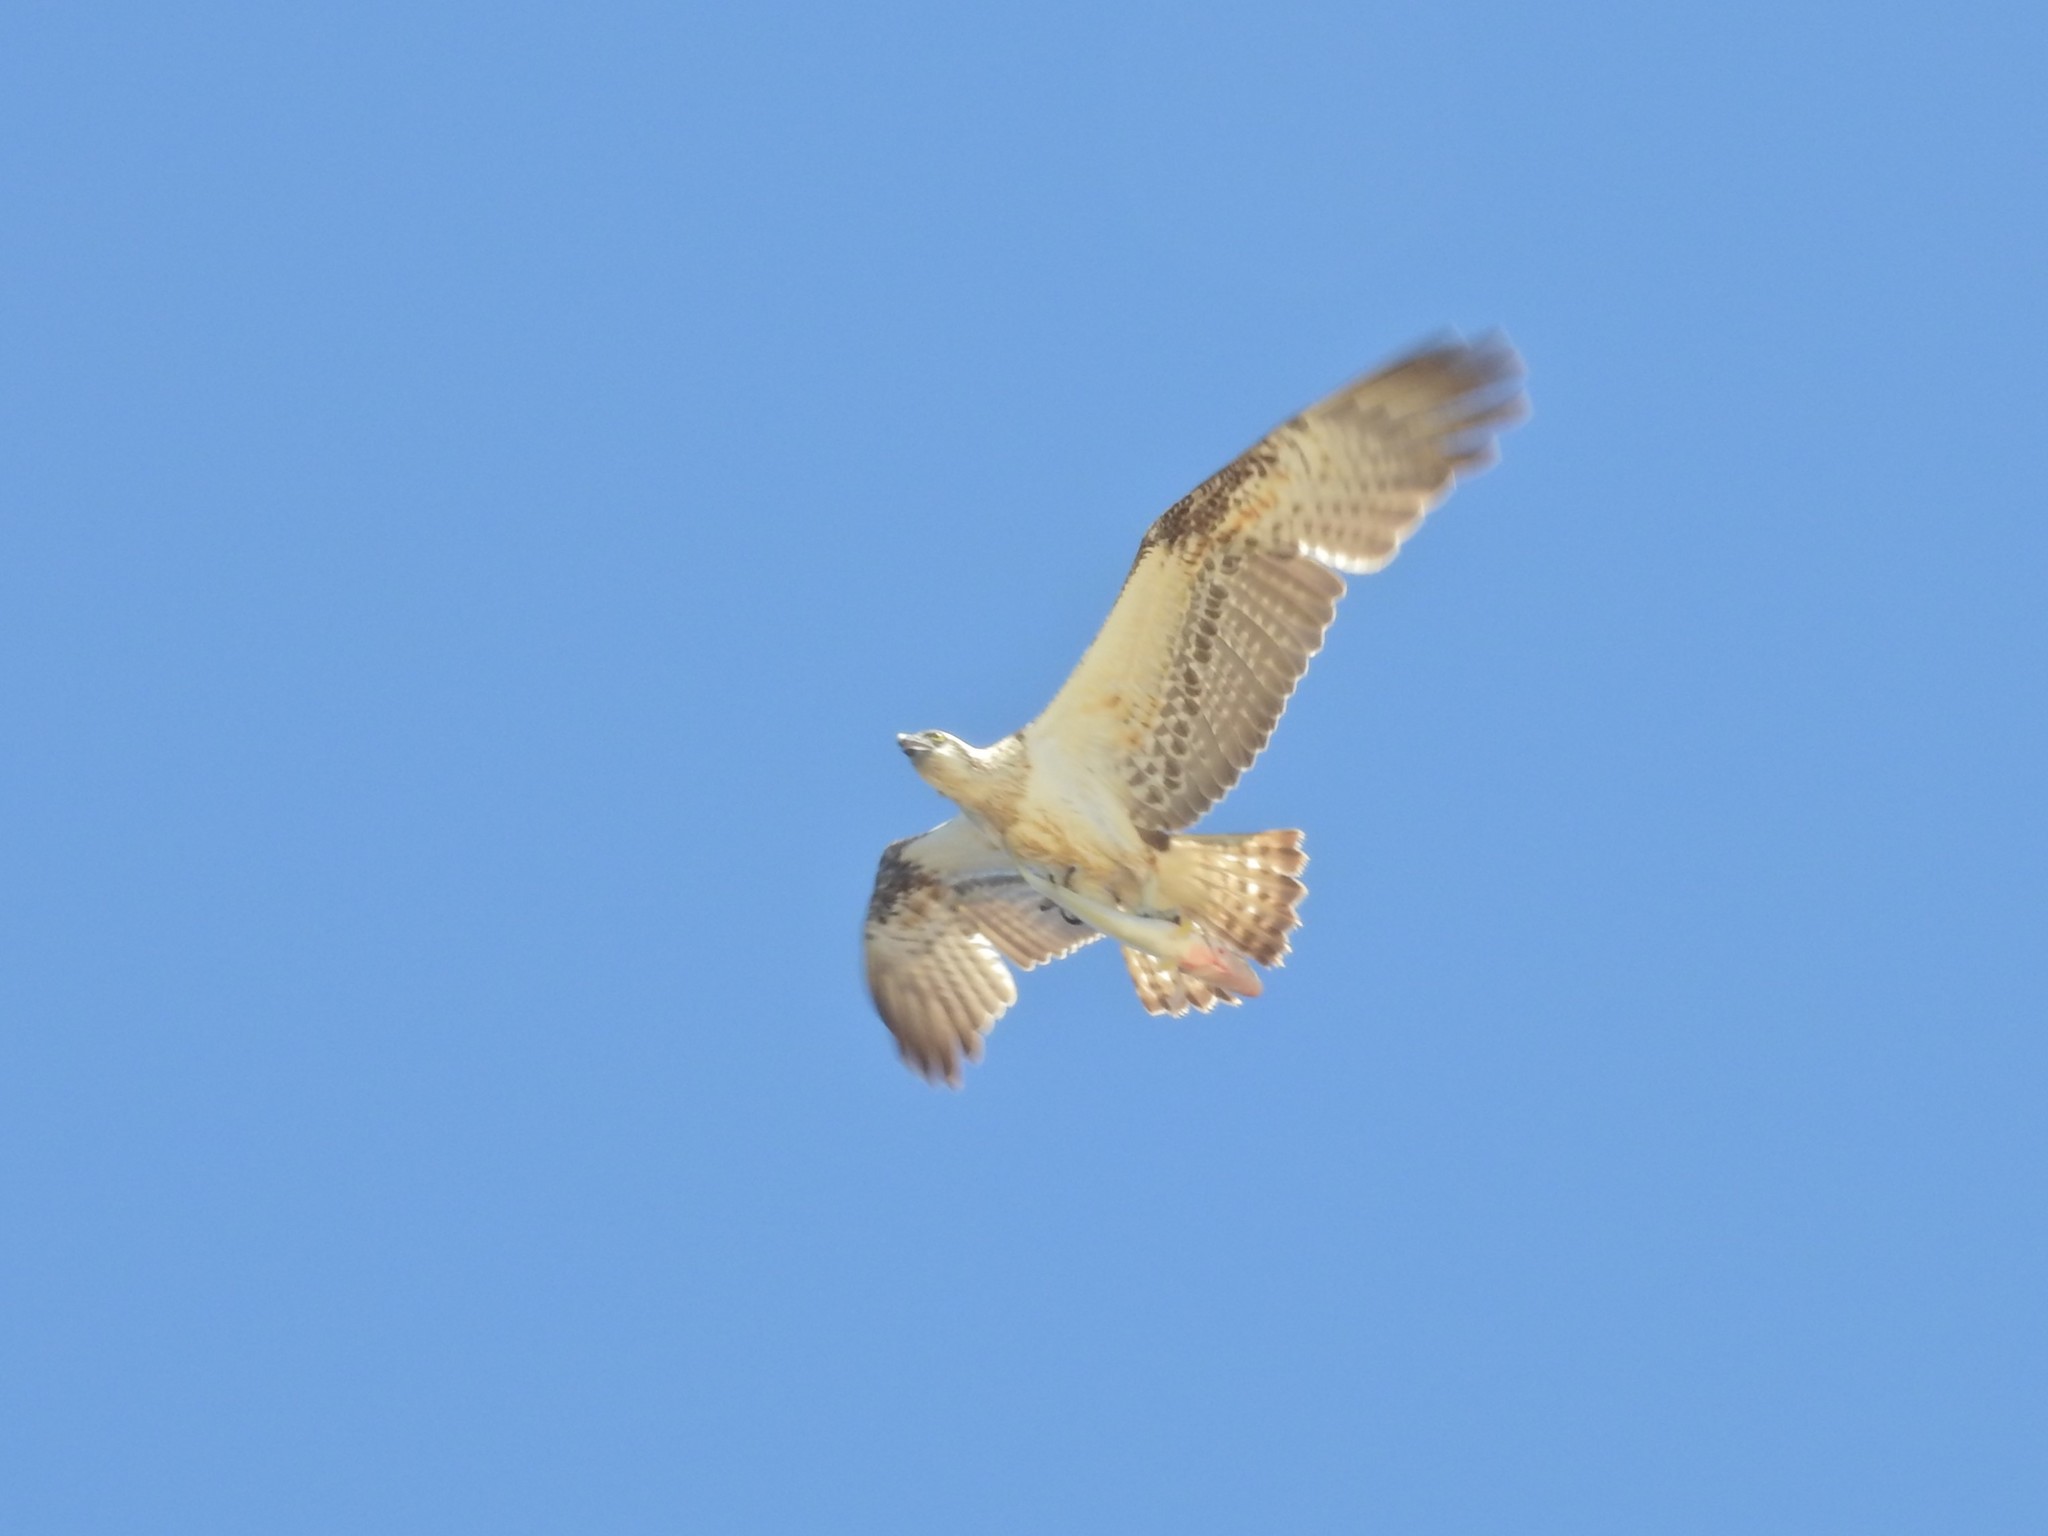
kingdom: Animalia
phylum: Chordata
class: Aves
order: Accipitriformes
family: Pandionidae
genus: Pandion
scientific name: Pandion haliaetus
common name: Osprey
